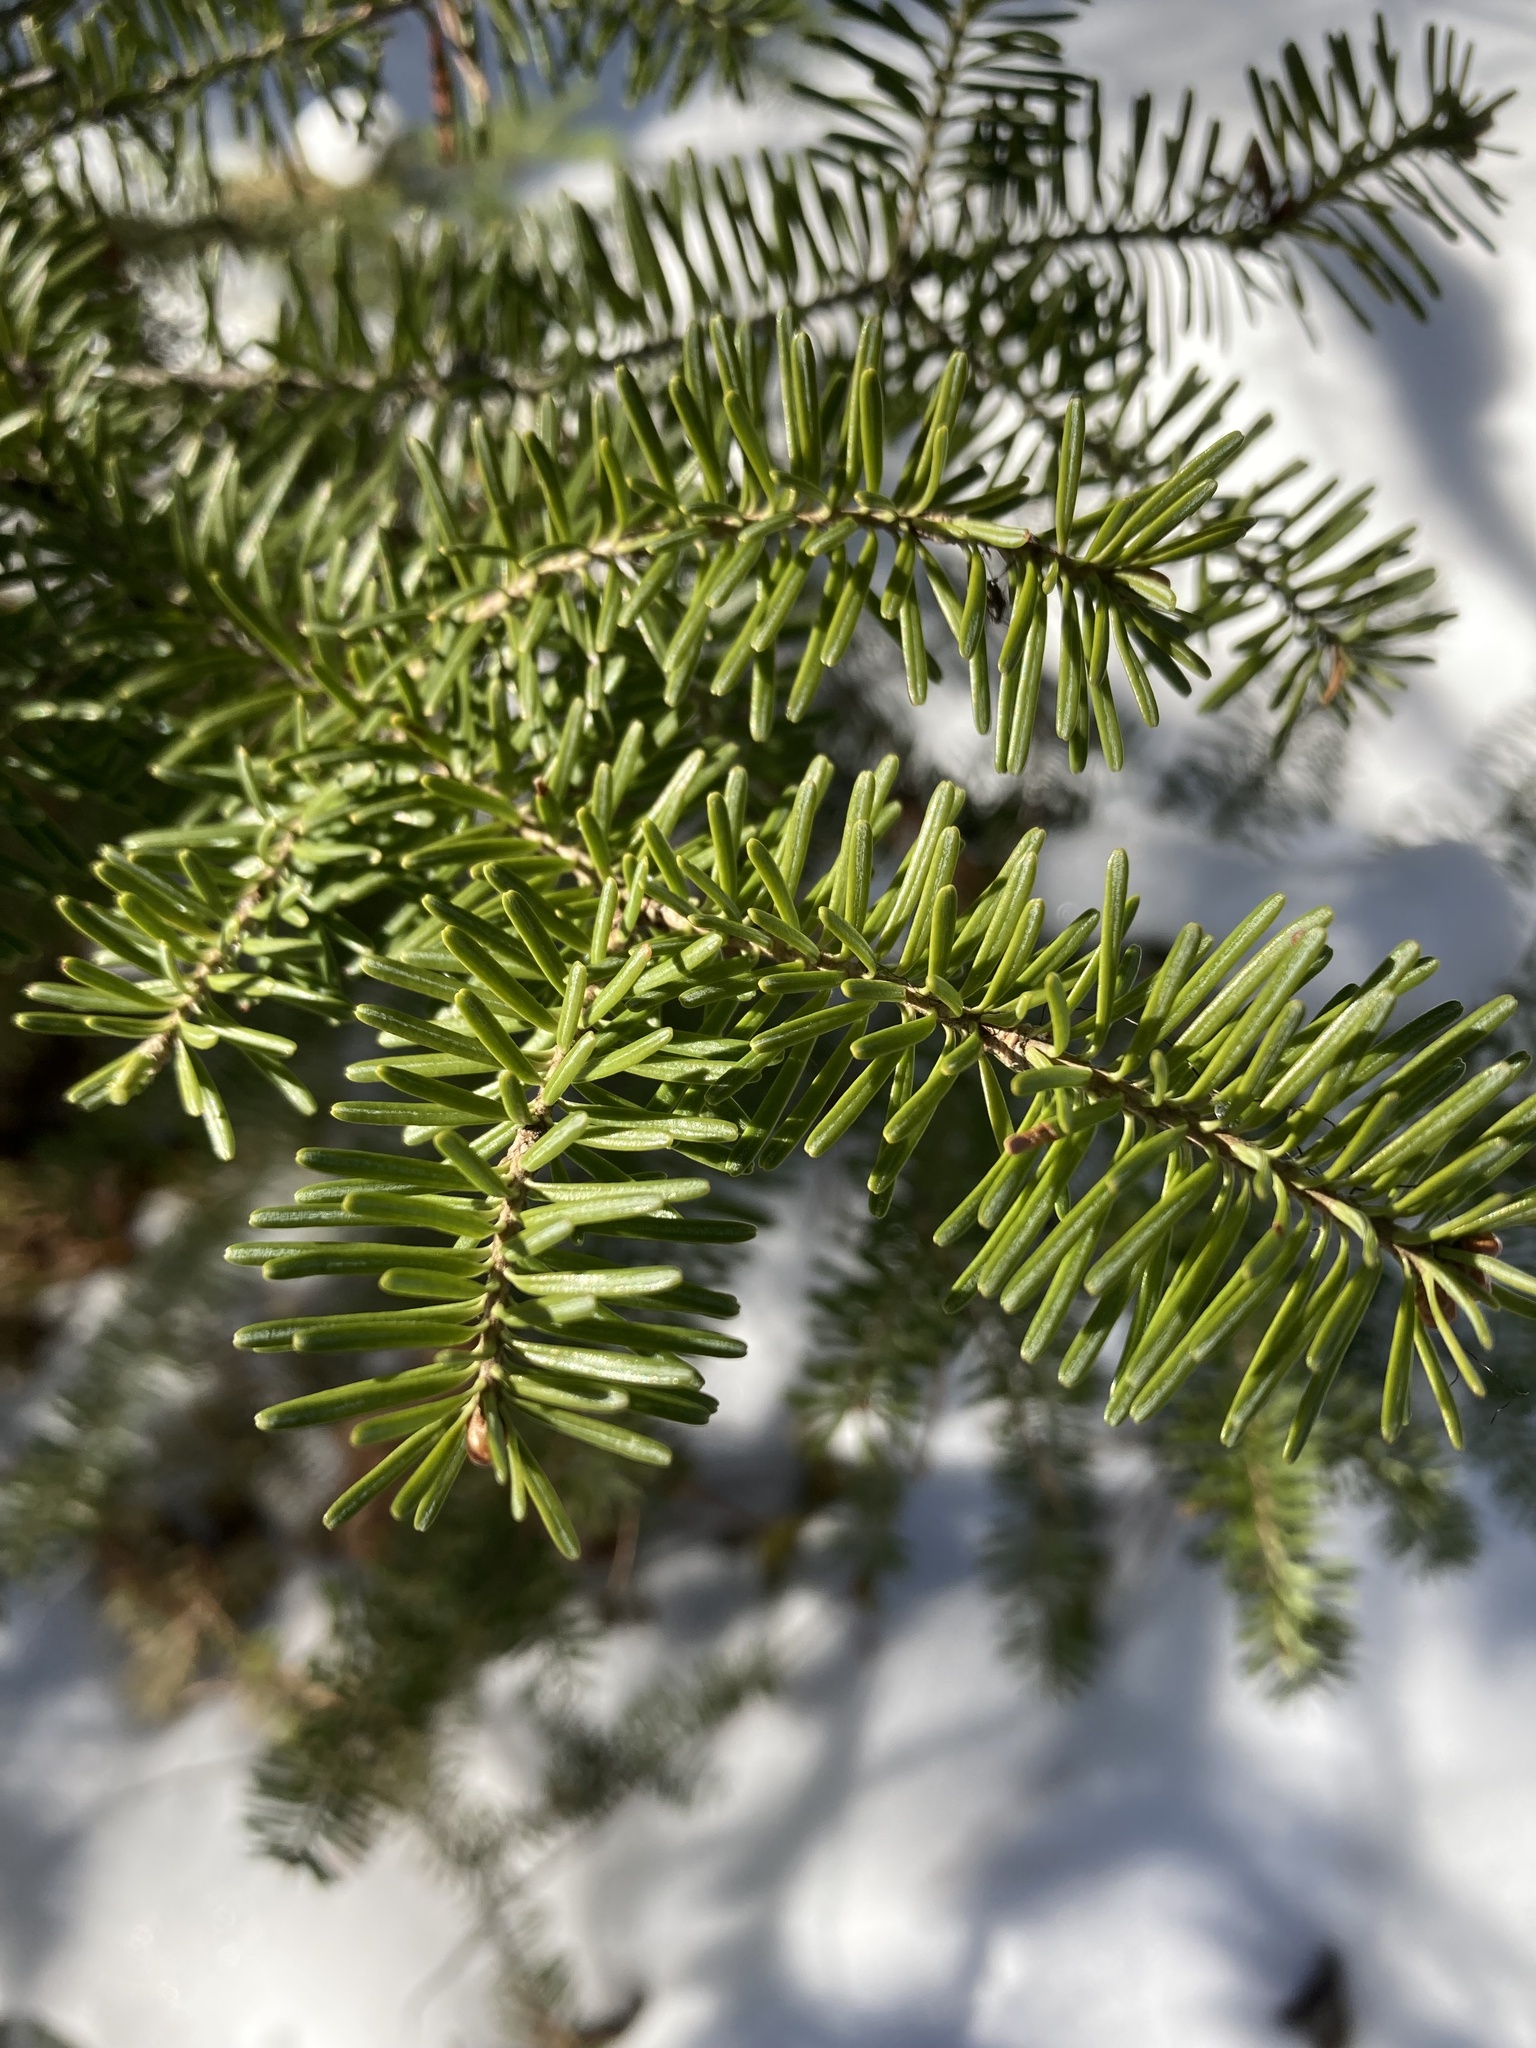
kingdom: Plantae
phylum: Tracheophyta
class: Pinopsida
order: Pinales
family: Pinaceae
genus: Abies
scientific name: Abies lasiocarpa
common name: Subalpine fir
